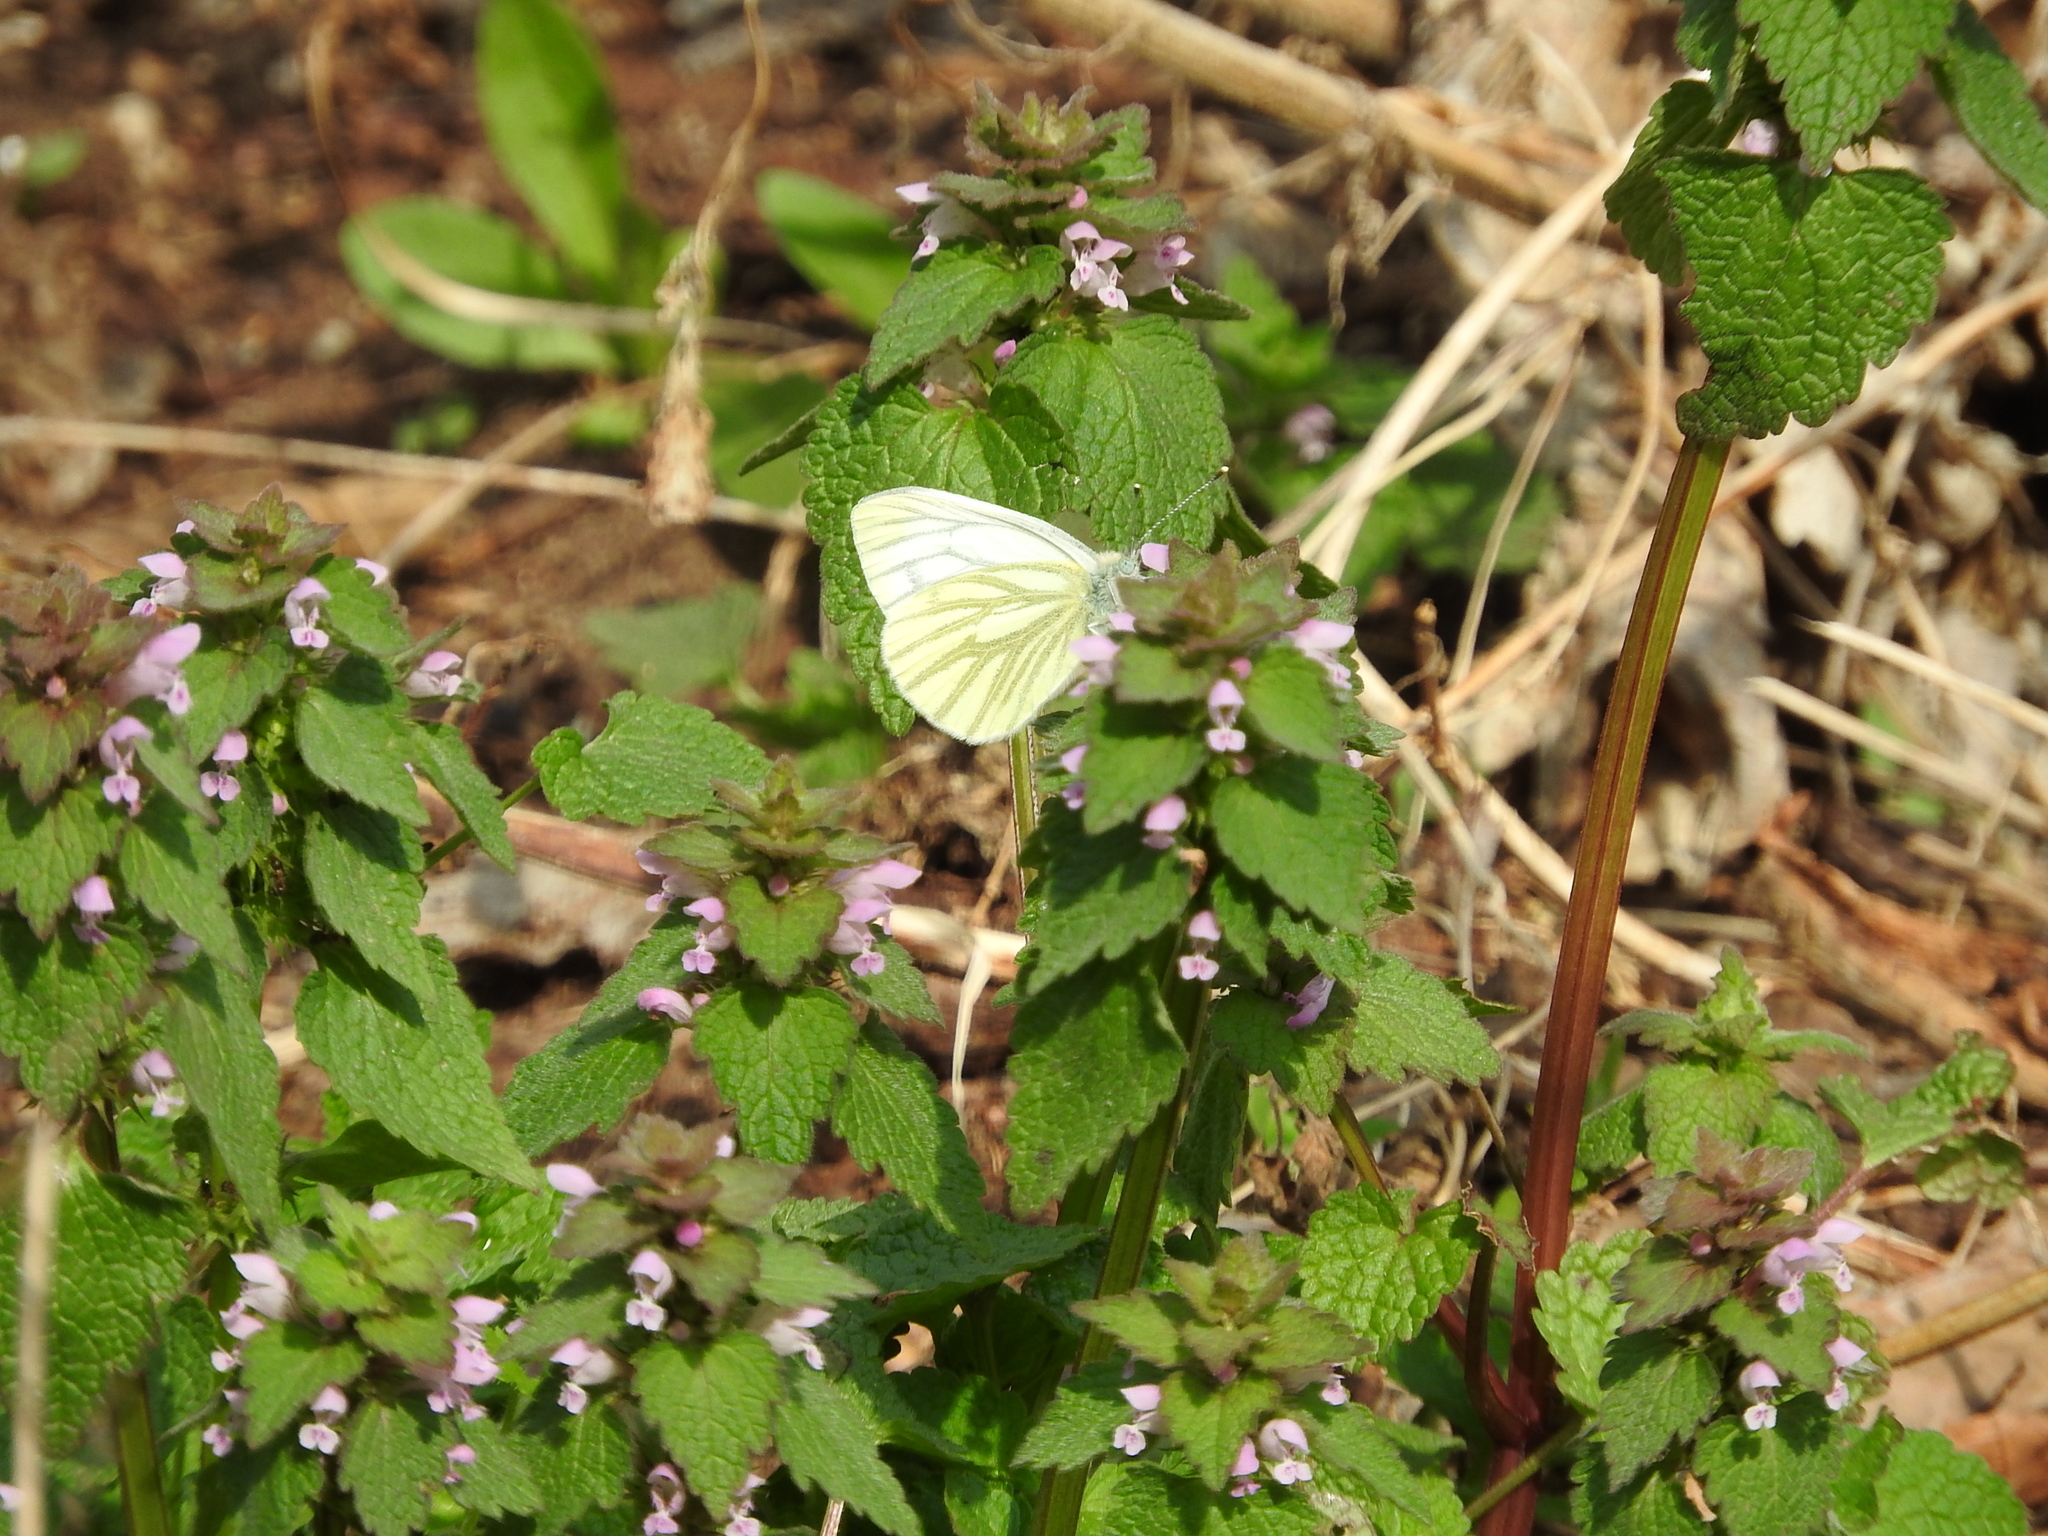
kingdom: Animalia
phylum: Arthropoda
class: Insecta
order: Lepidoptera
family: Pieridae
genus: Pieris
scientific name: Pieris napi
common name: Green-veined white
